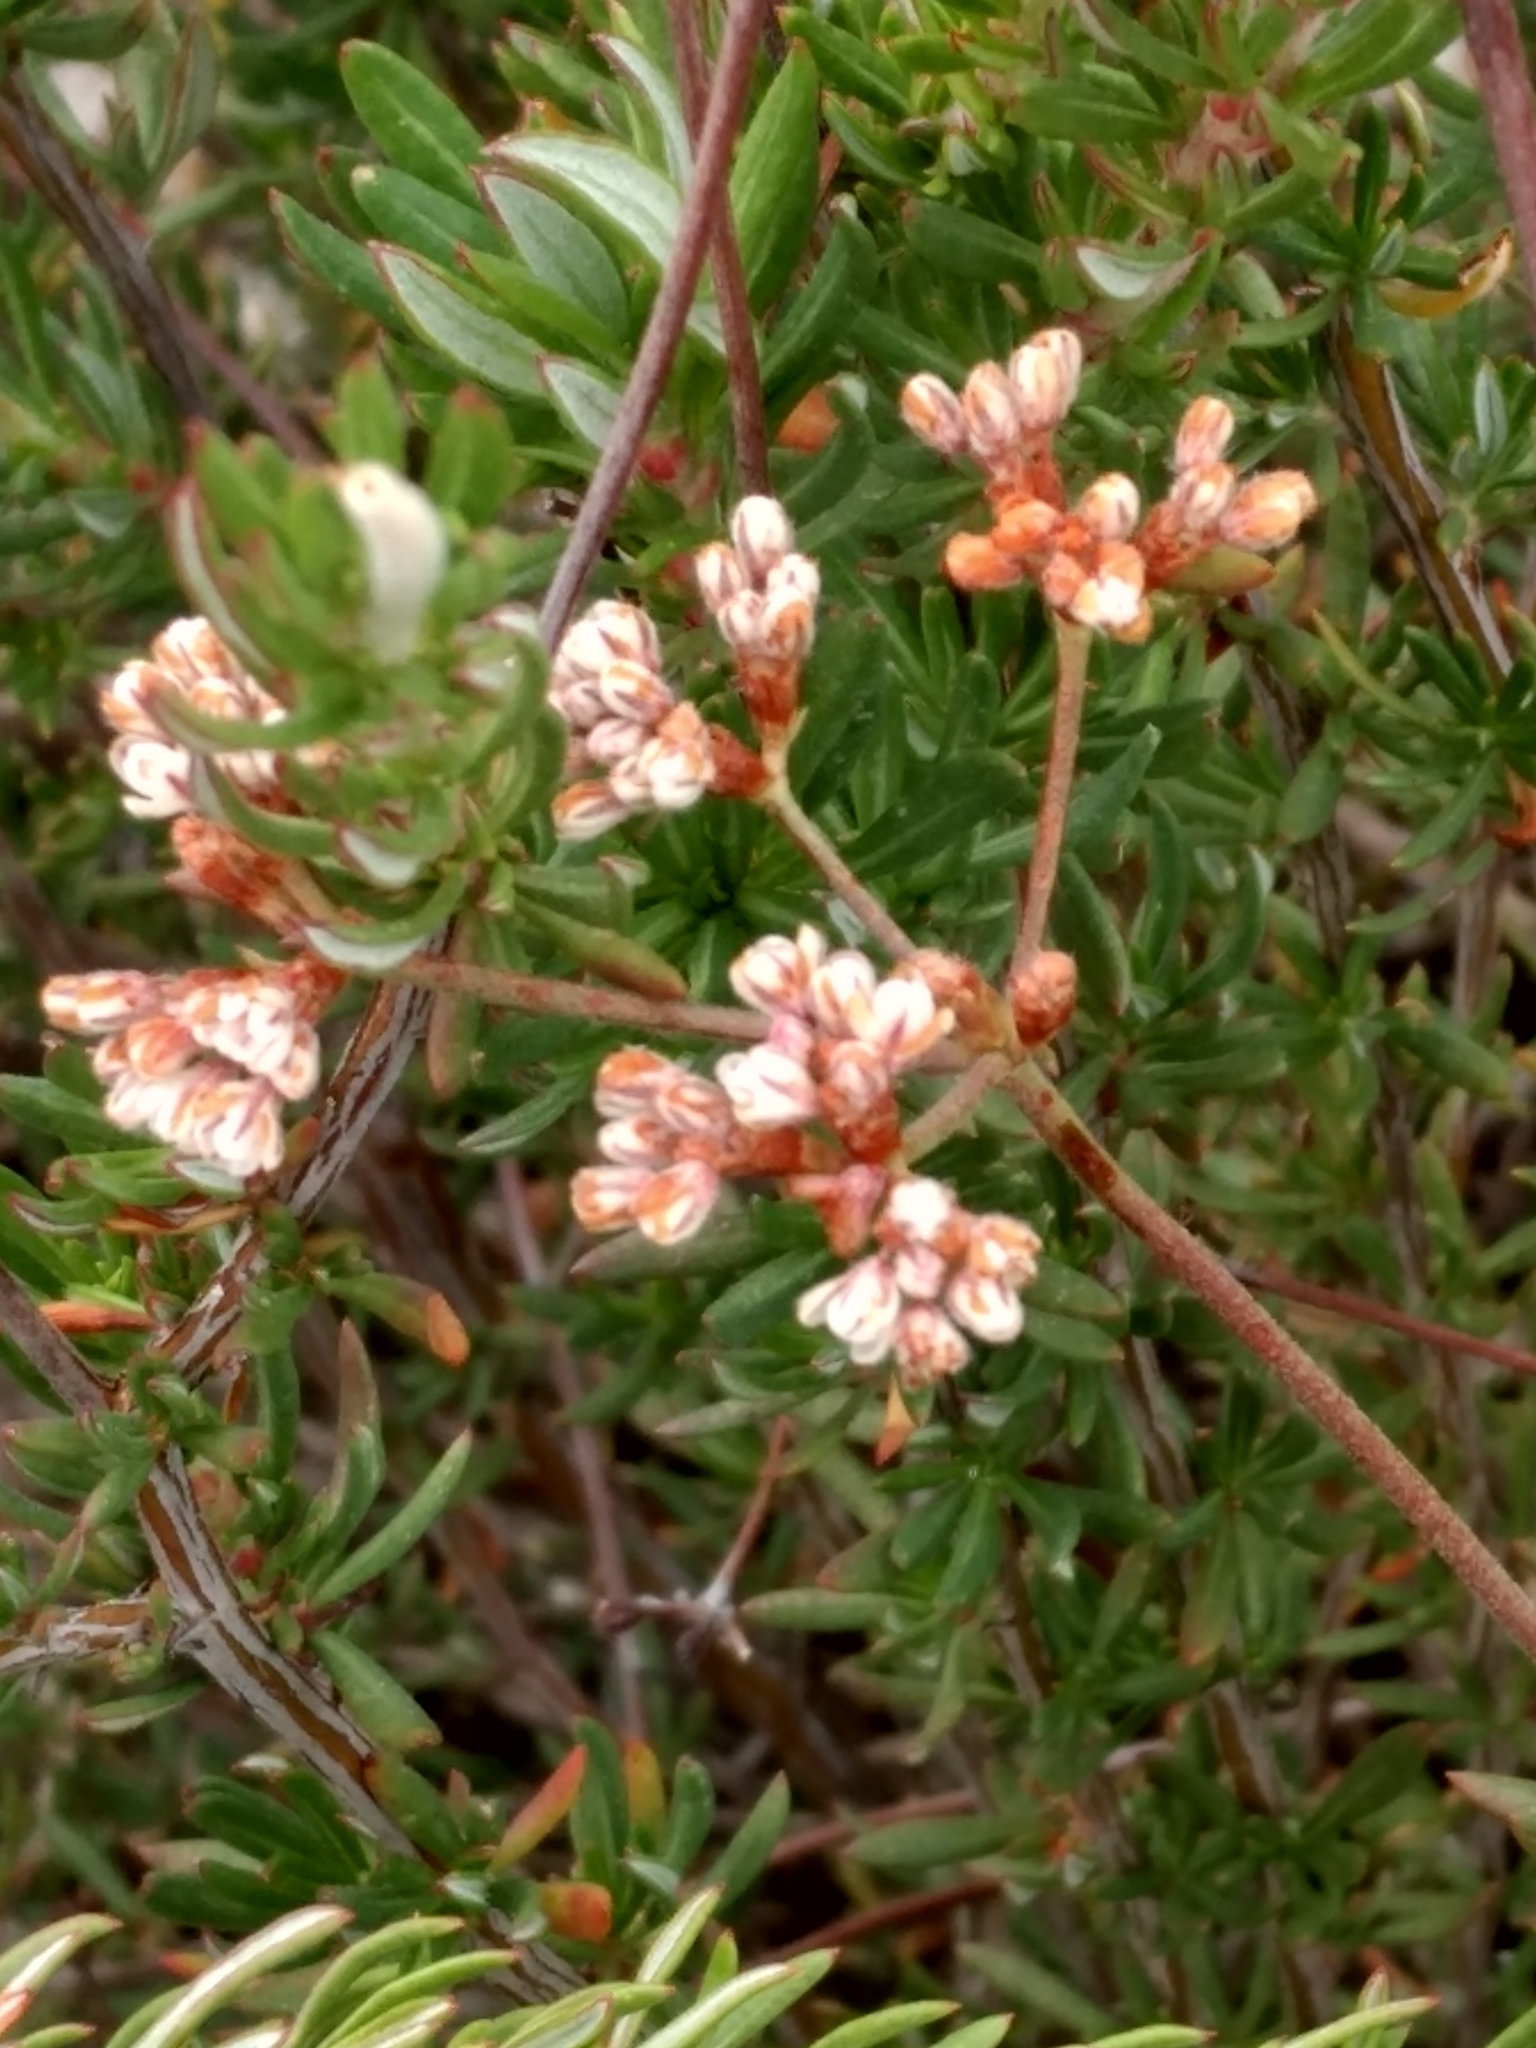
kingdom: Plantae
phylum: Tracheophyta
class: Magnoliopsida
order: Caryophyllales
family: Polygonaceae
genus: Eriogonum
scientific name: Eriogonum fasciculatum
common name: California wild buckwheat
